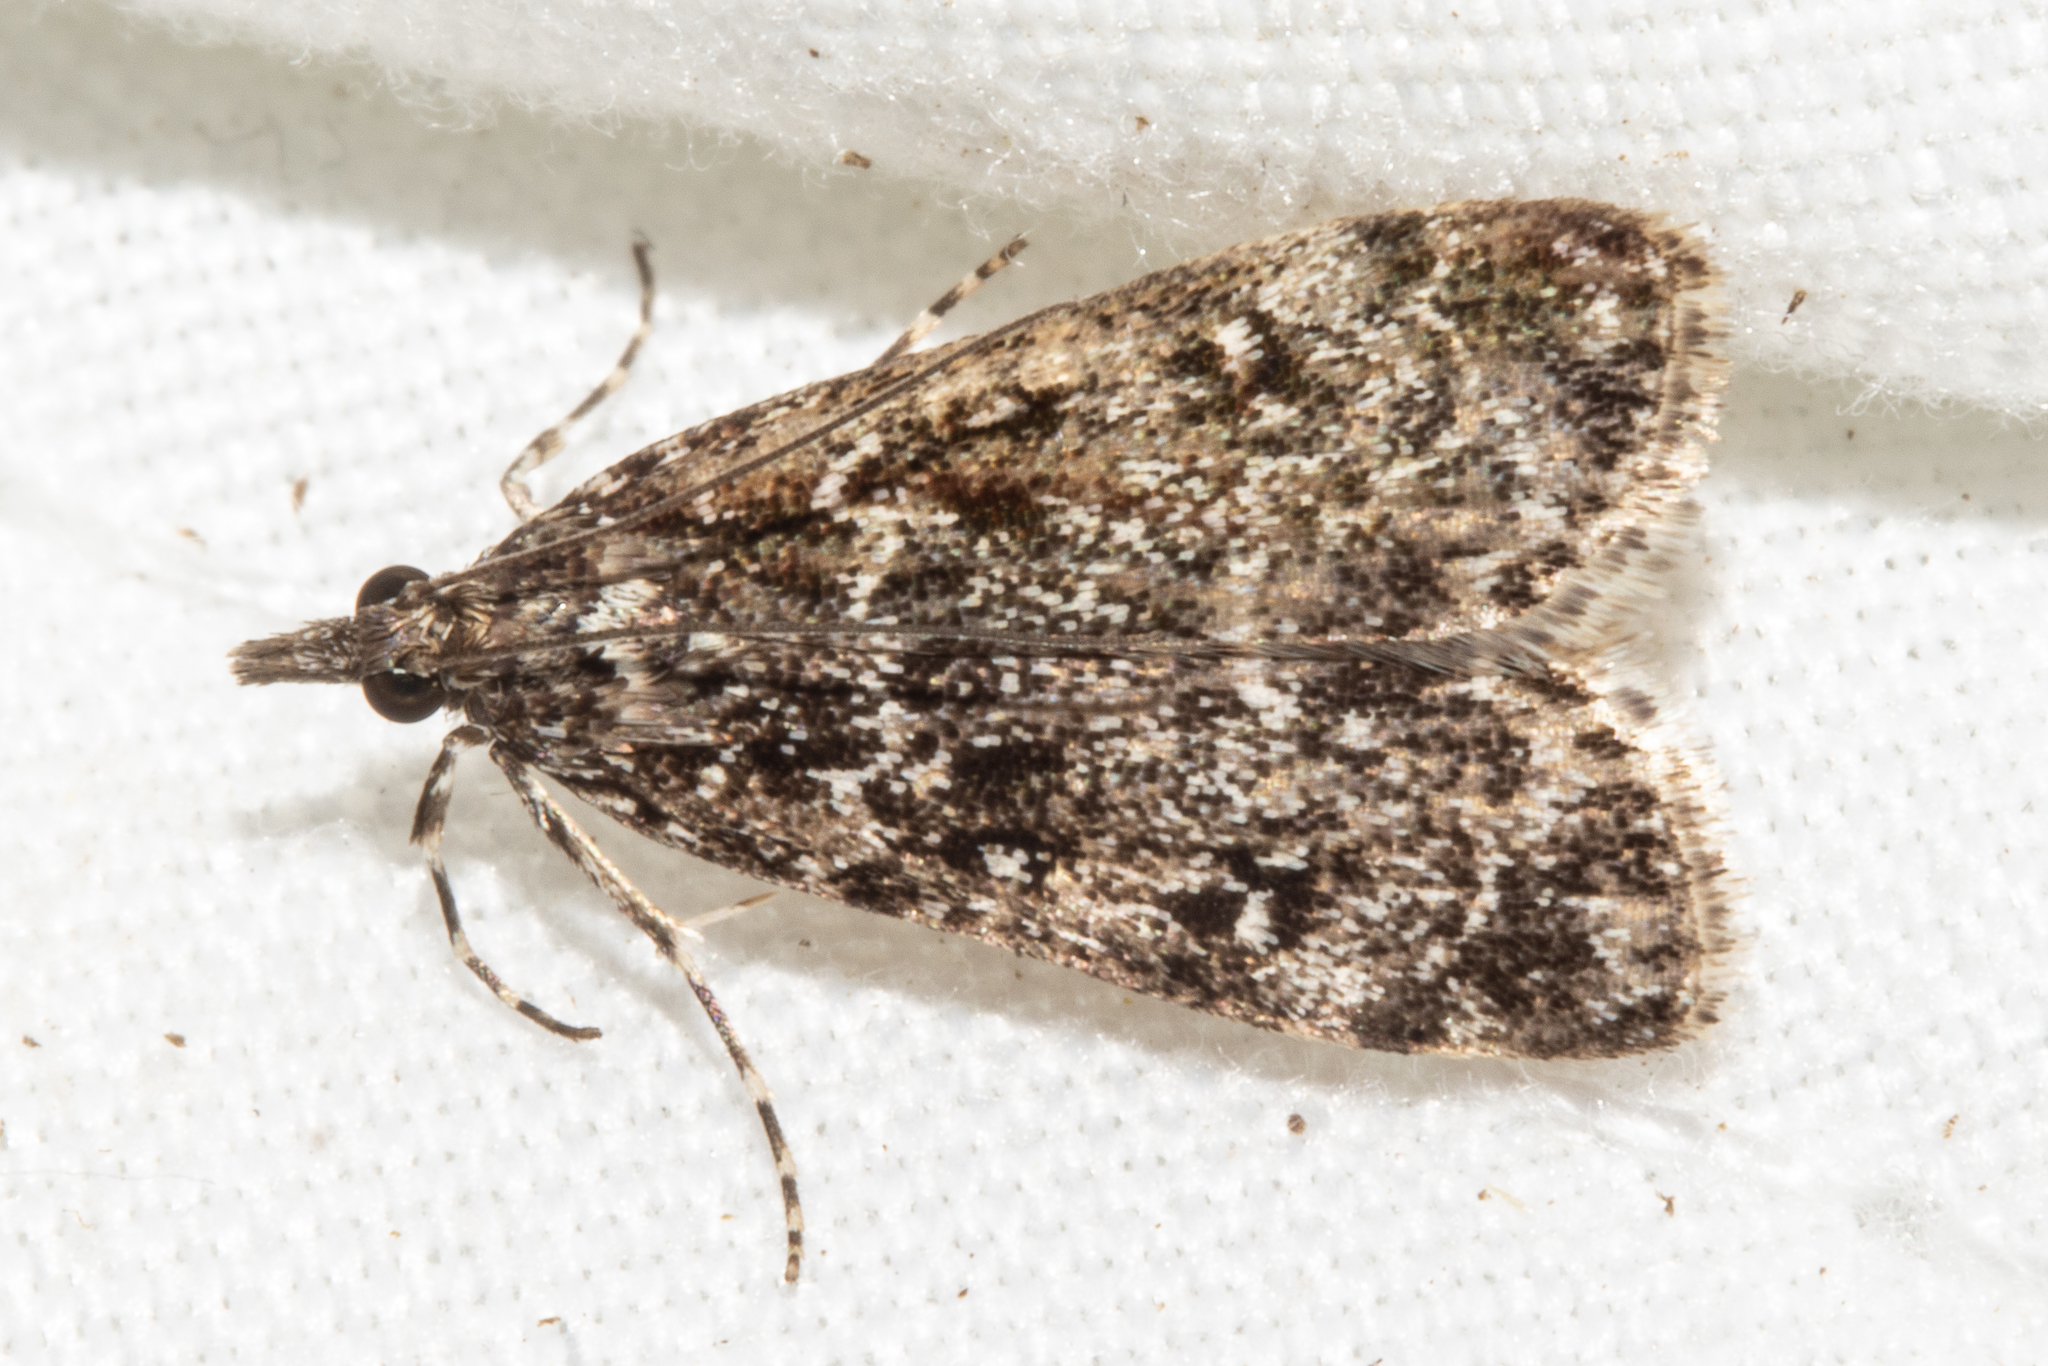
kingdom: Animalia
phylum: Arthropoda
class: Insecta
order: Lepidoptera
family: Crambidae
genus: Eudonia
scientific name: Eudonia philerga
